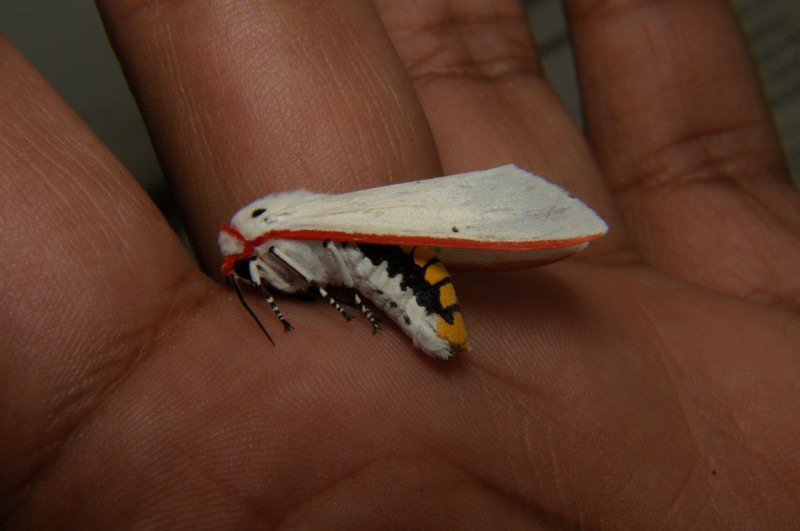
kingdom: Animalia
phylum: Arthropoda
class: Insecta
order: Lepidoptera
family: Erebidae
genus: Aloa
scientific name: Aloa lactinea
